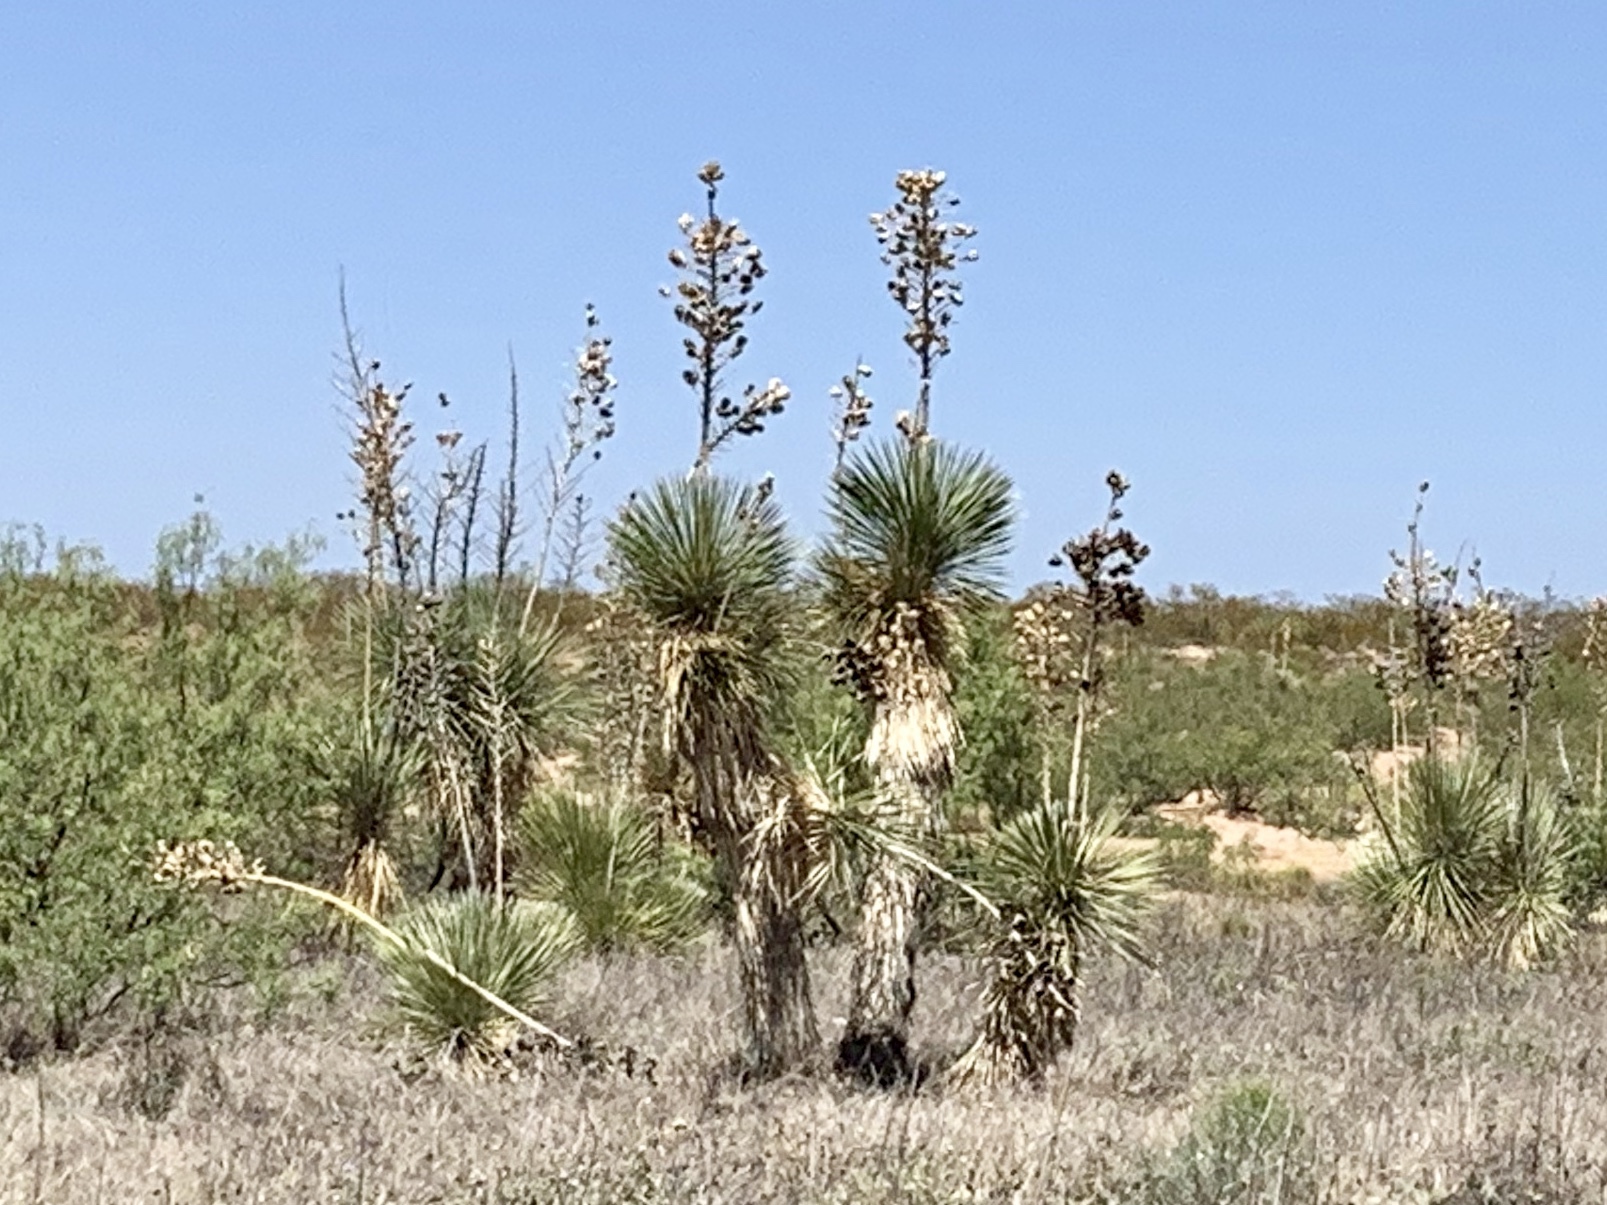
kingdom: Plantae
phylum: Tracheophyta
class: Liliopsida
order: Asparagales
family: Asparagaceae
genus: Yucca
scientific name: Yucca elata
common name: Palmella
